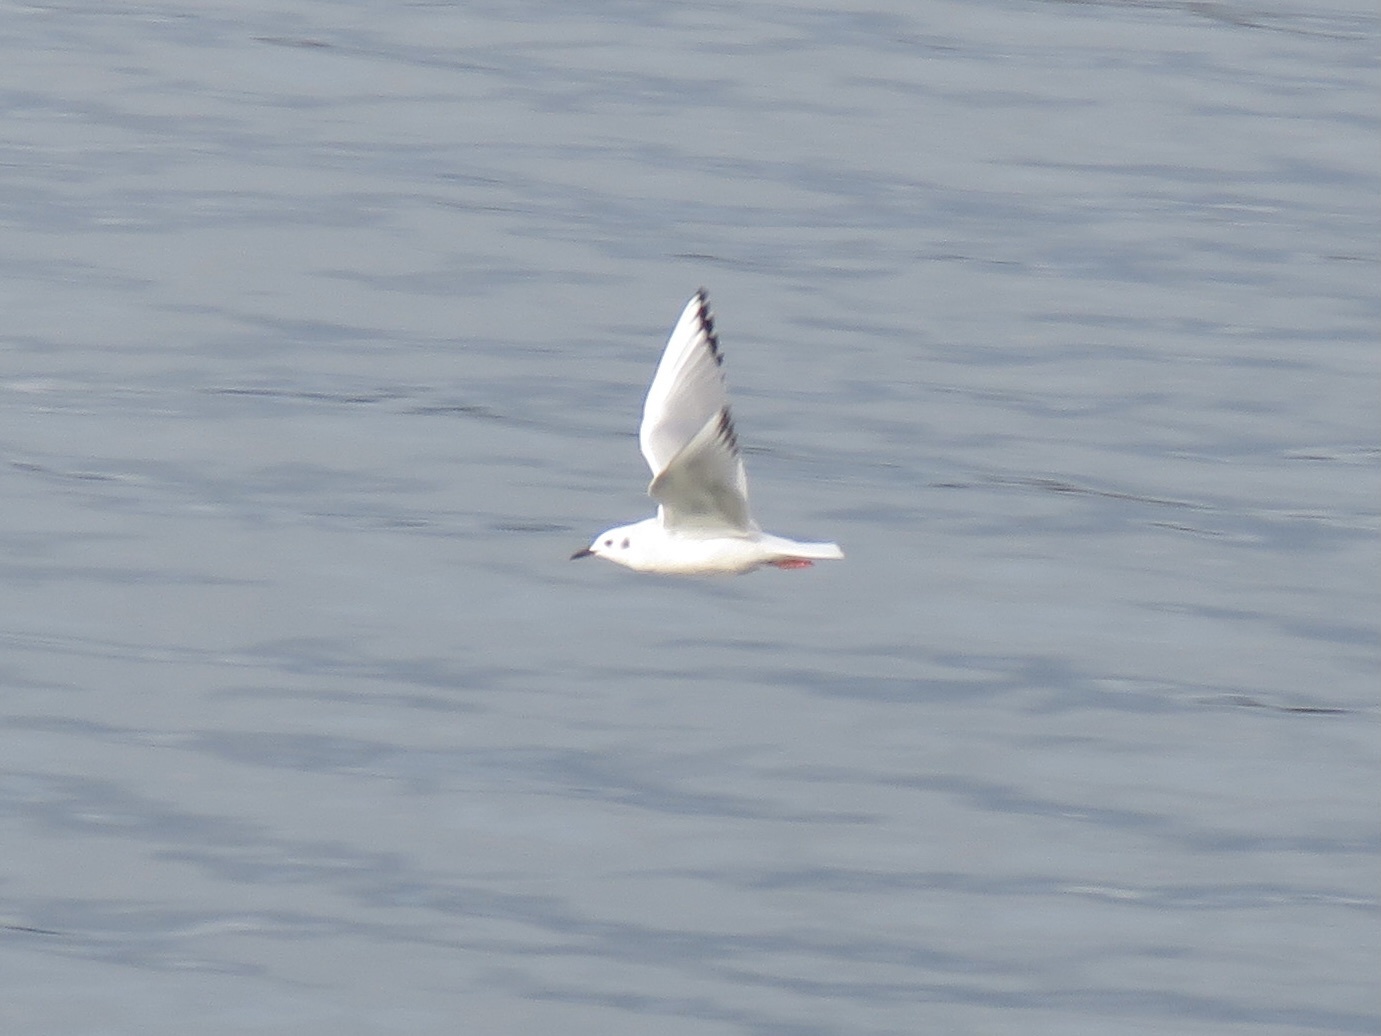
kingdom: Animalia
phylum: Chordata
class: Aves
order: Charadriiformes
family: Laridae
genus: Chroicocephalus
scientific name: Chroicocephalus philadelphia
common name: Bonaparte's gull
